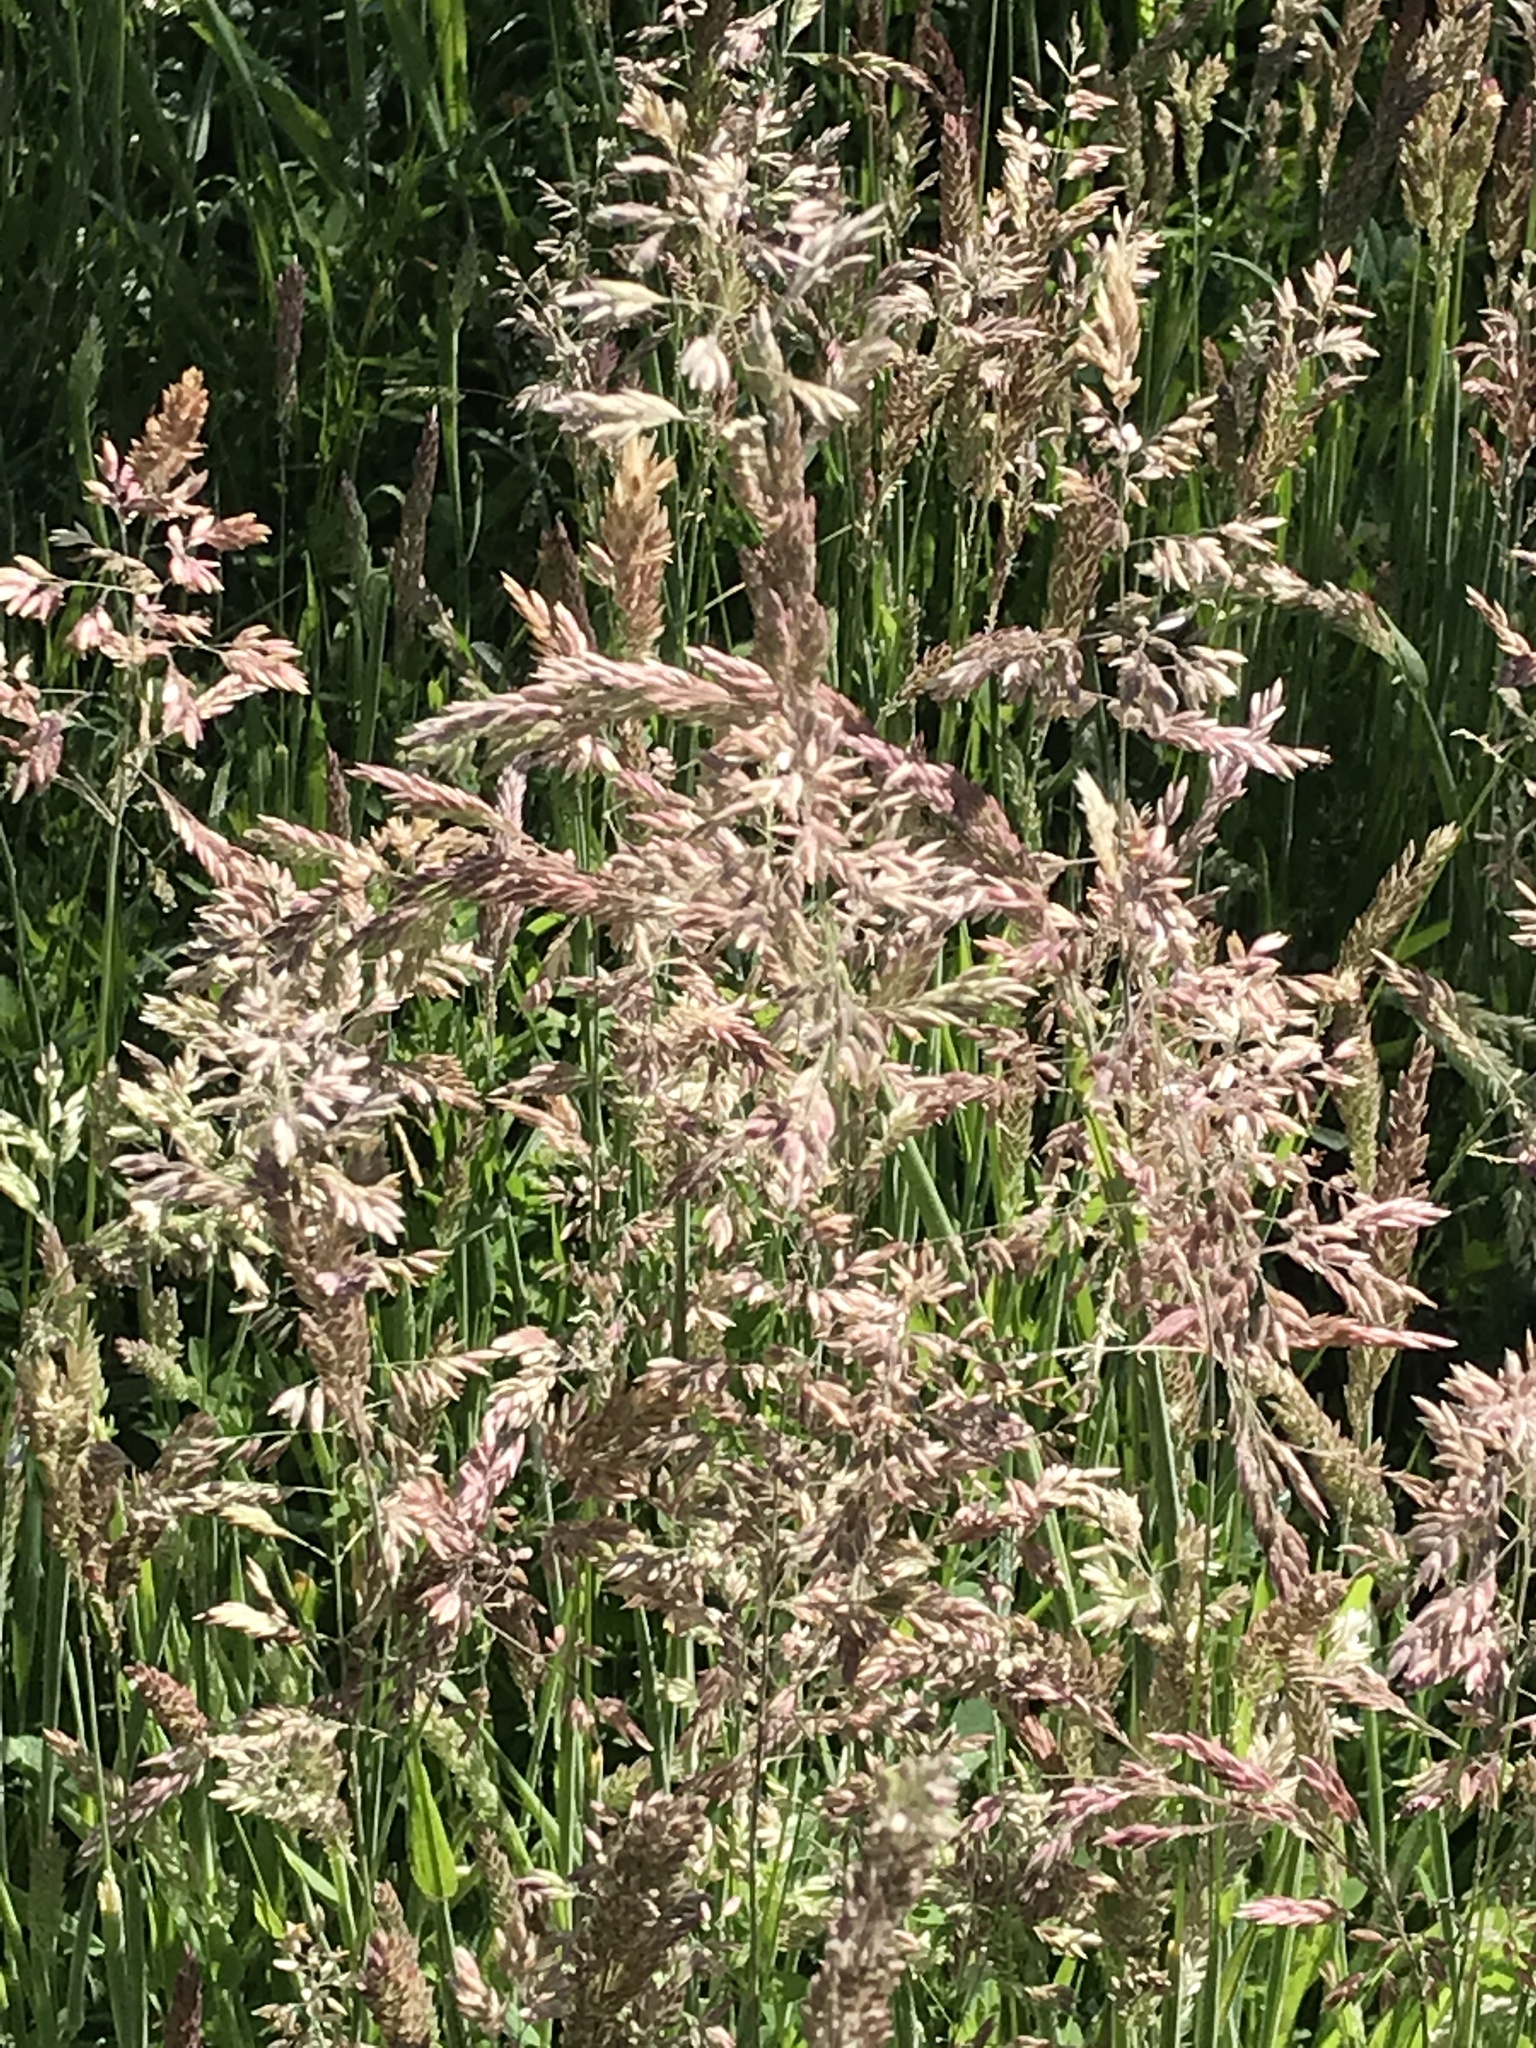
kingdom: Plantae
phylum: Tracheophyta
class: Liliopsida
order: Poales
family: Poaceae
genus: Holcus
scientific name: Holcus lanatus
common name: Yorkshire-fog
